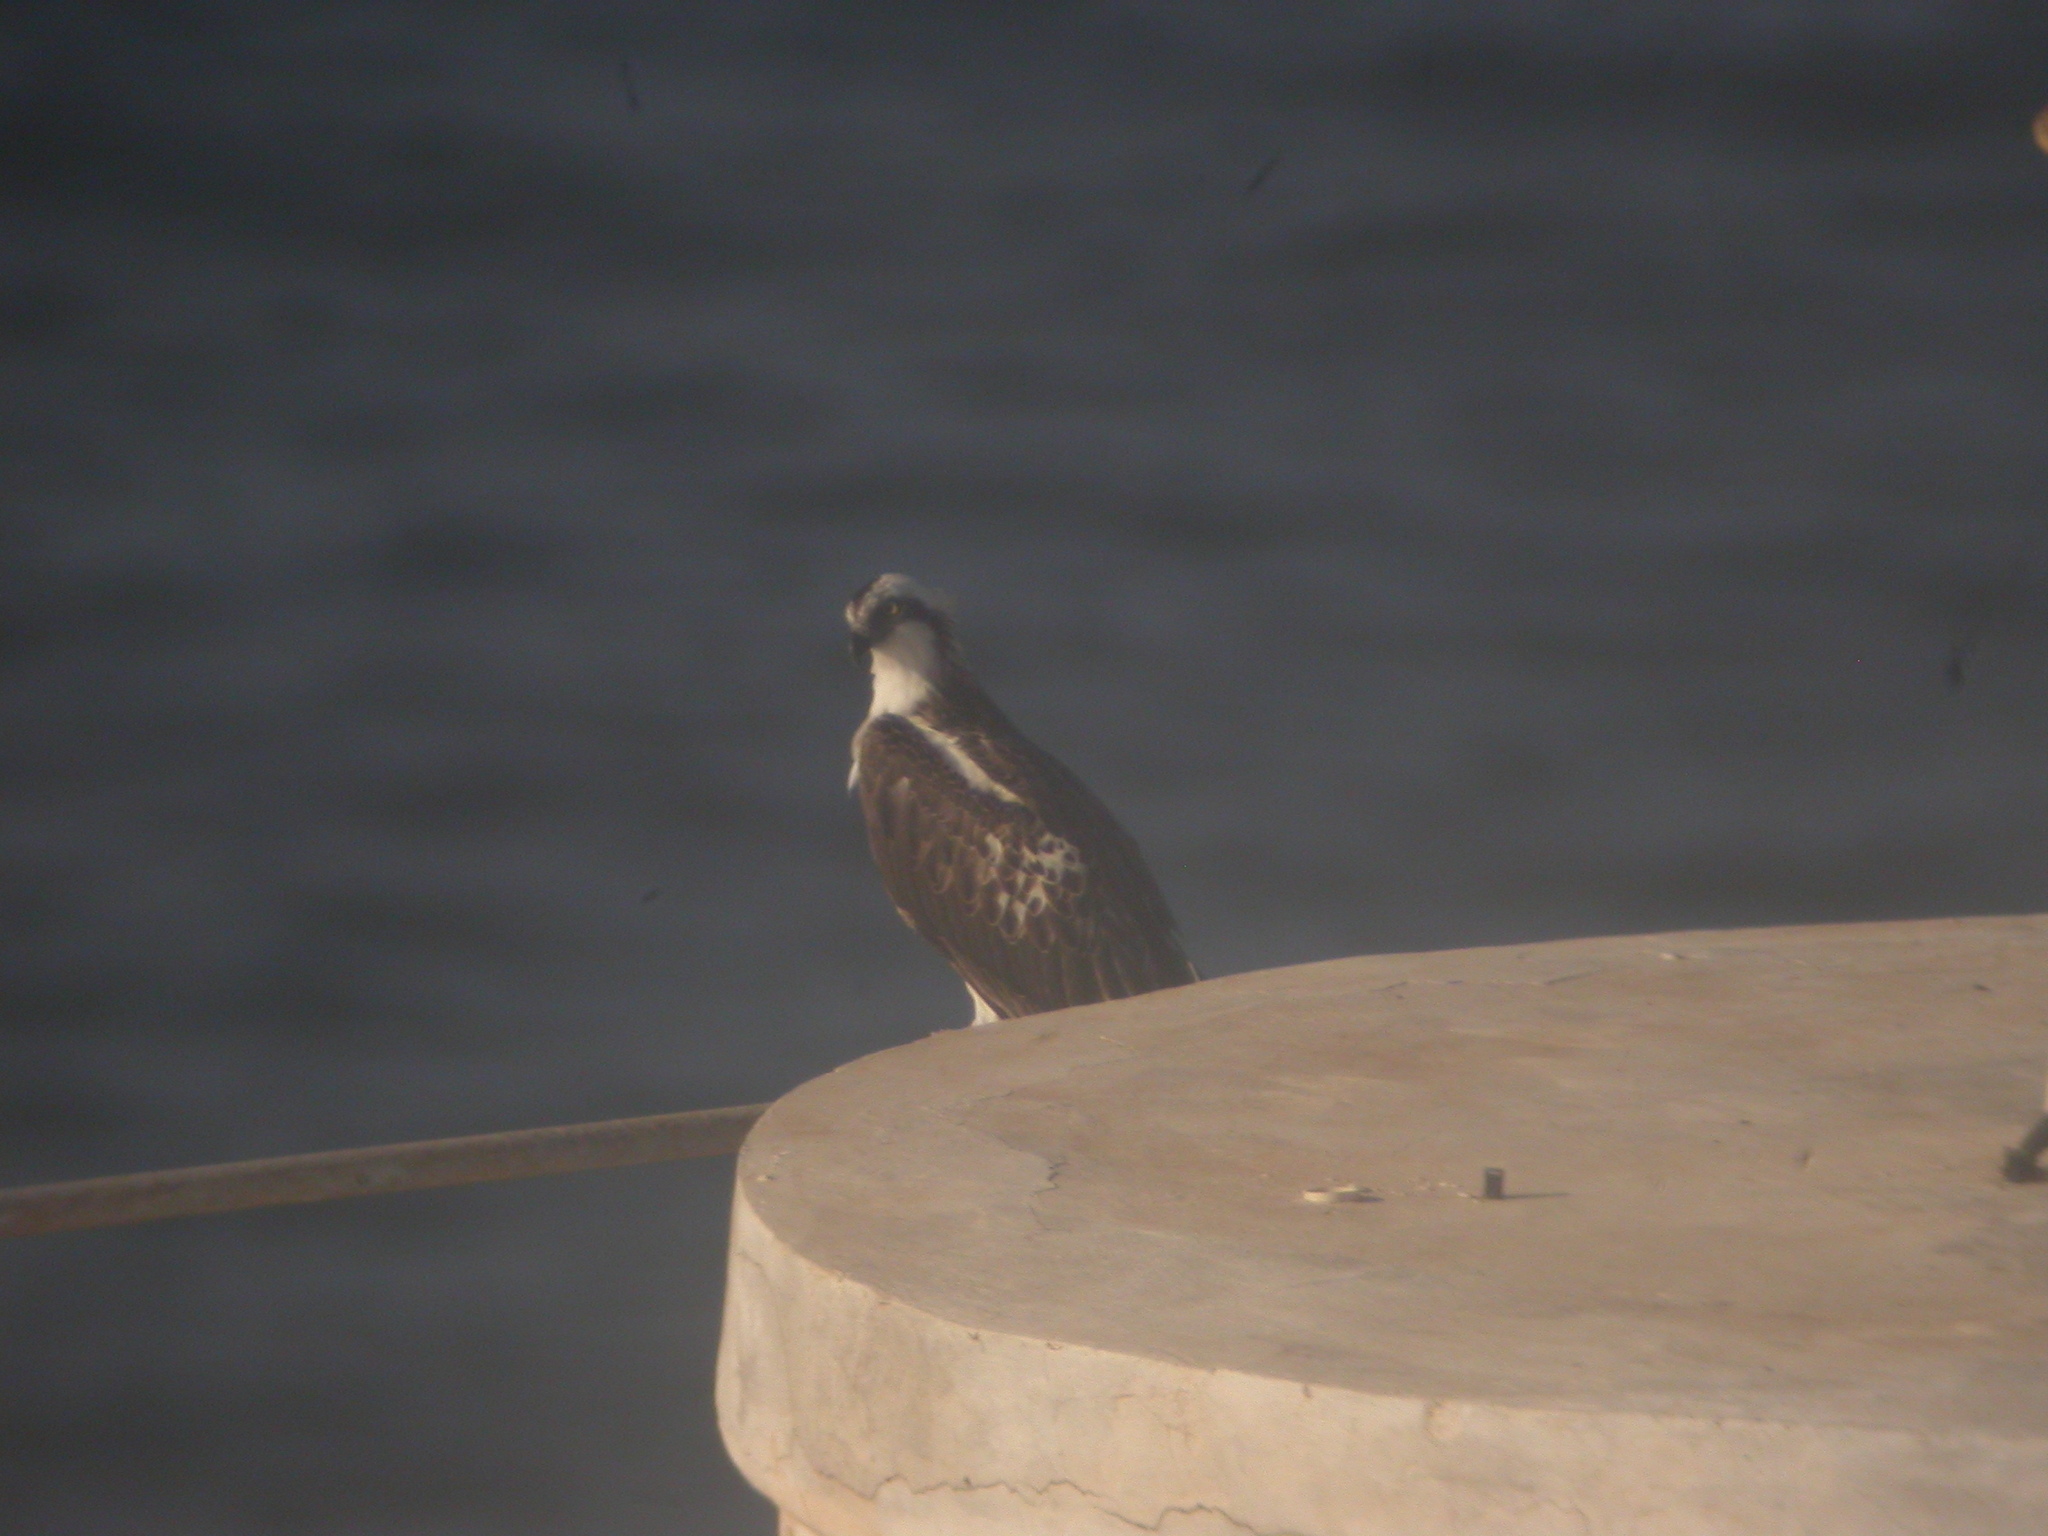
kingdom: Animalia
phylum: Chordata
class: Aves
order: Accipitriformes
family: Pandionidae
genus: Pandion
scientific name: Pandion haliaetus
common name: Osprey
